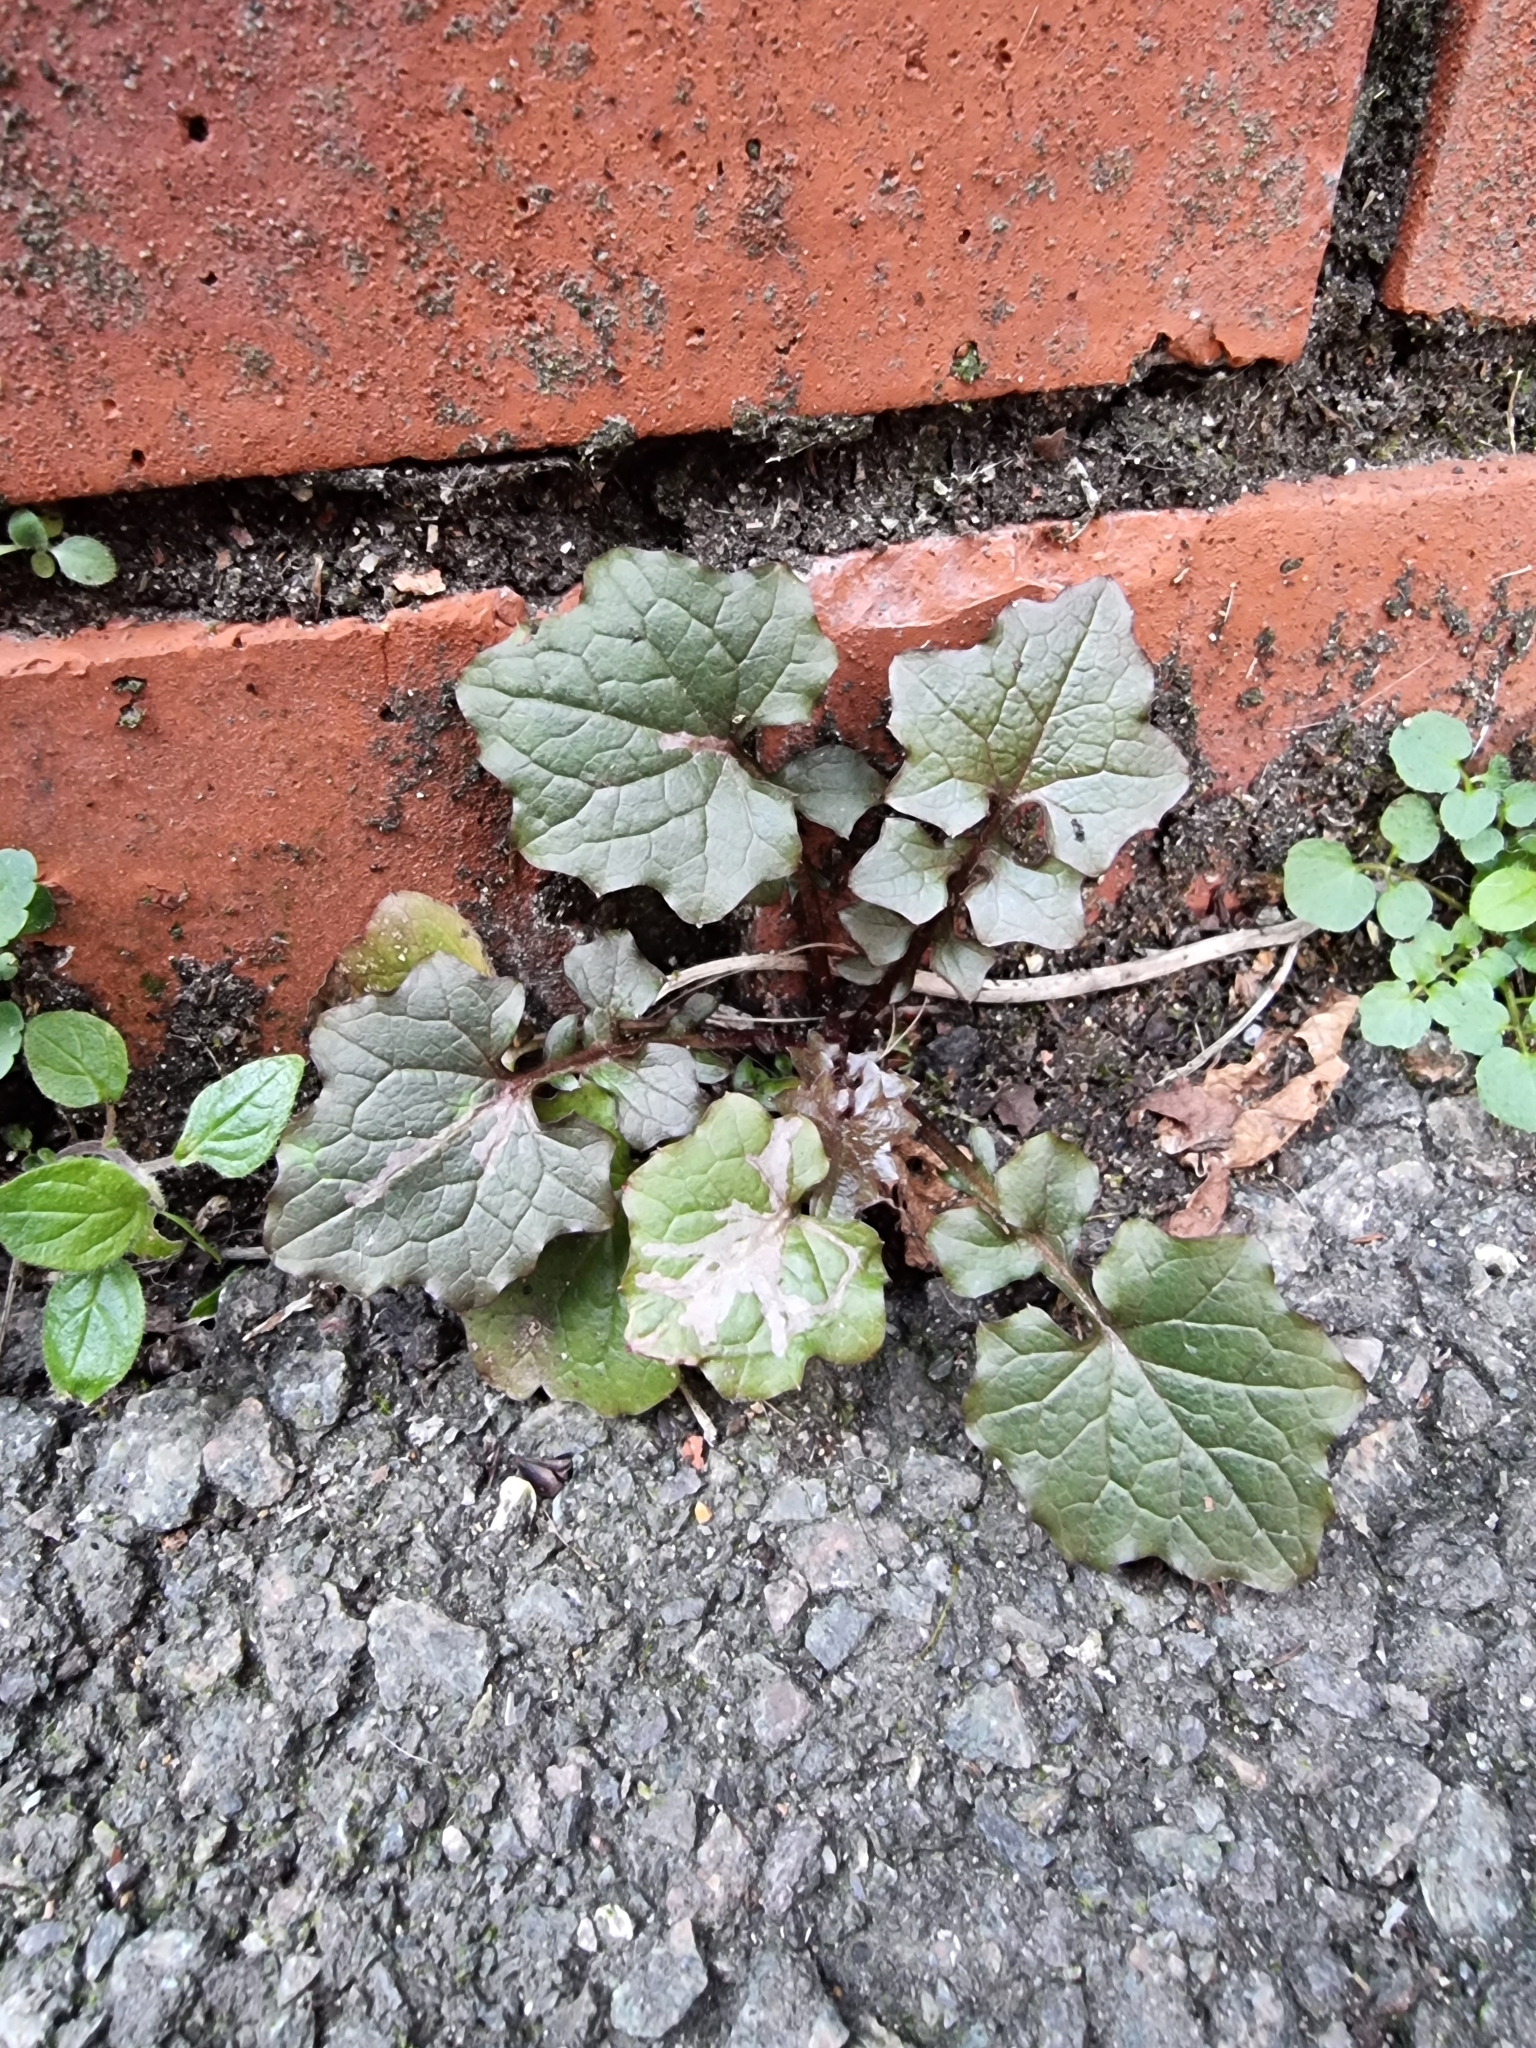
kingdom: Plantae
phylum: Tracheophyta
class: Magnoliopsida
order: Asterales
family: Asteraceae
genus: Mycelis
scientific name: Mycelis muralis
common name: Wall lettuce
